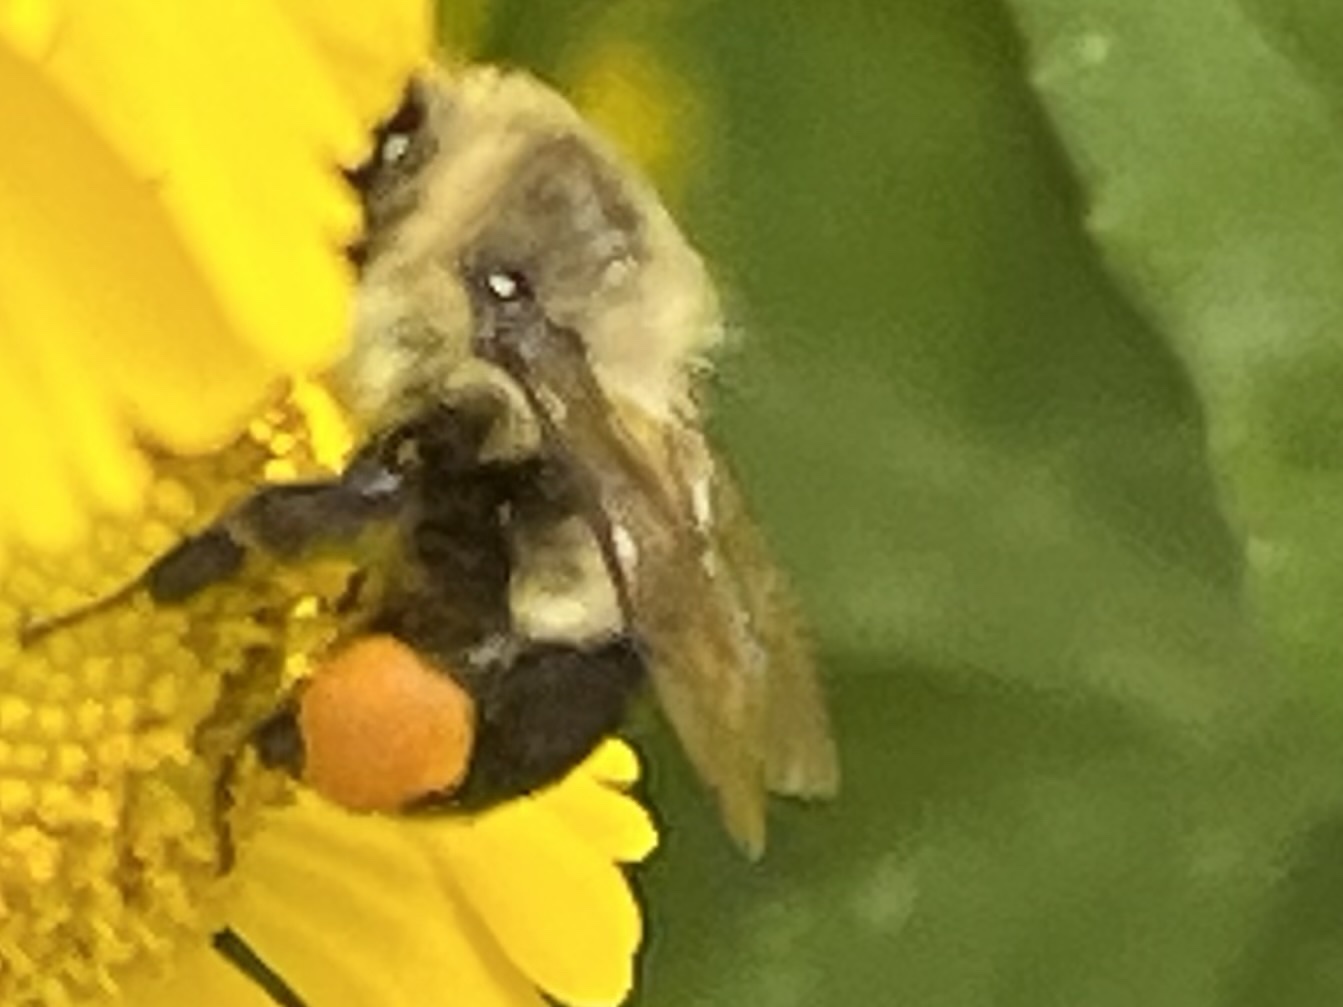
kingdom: Animalia
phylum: Arthropoda
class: Insecta
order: Hymenoptera
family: Apidae
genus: Bombus
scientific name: Bombus impatiens
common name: Common eastern bumble bee
